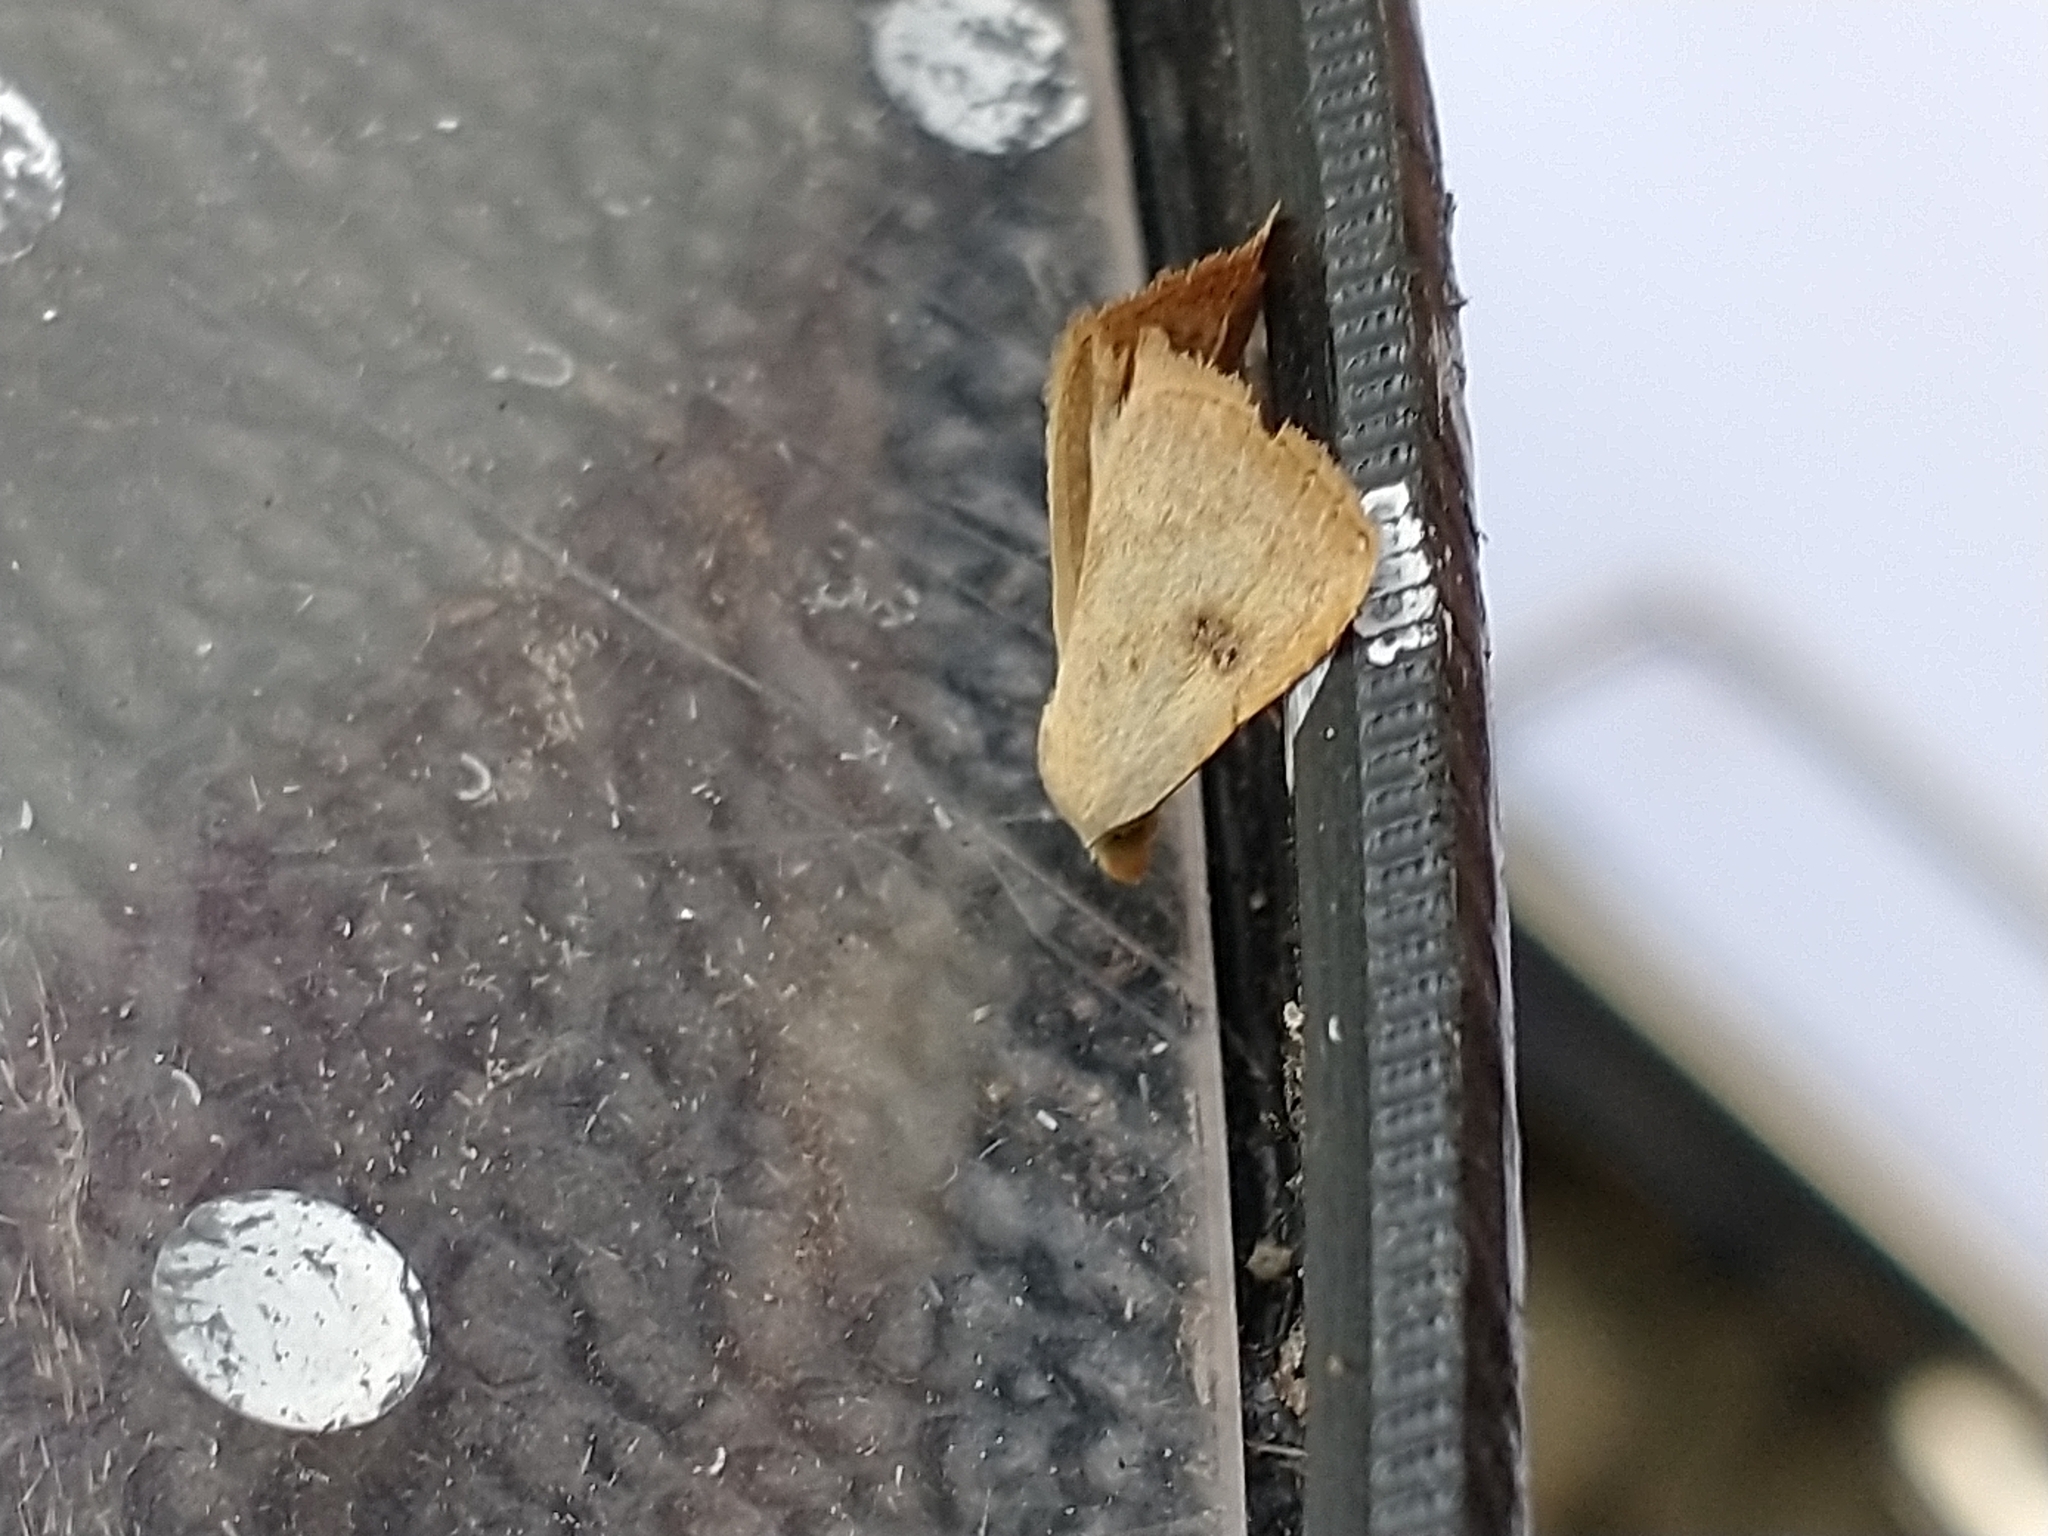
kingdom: Animalia
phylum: Arthropoda
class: Insecta
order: Lepidoptera
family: Erebidae
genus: Rivula
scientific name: Rivula sericealis
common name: Straw dot
